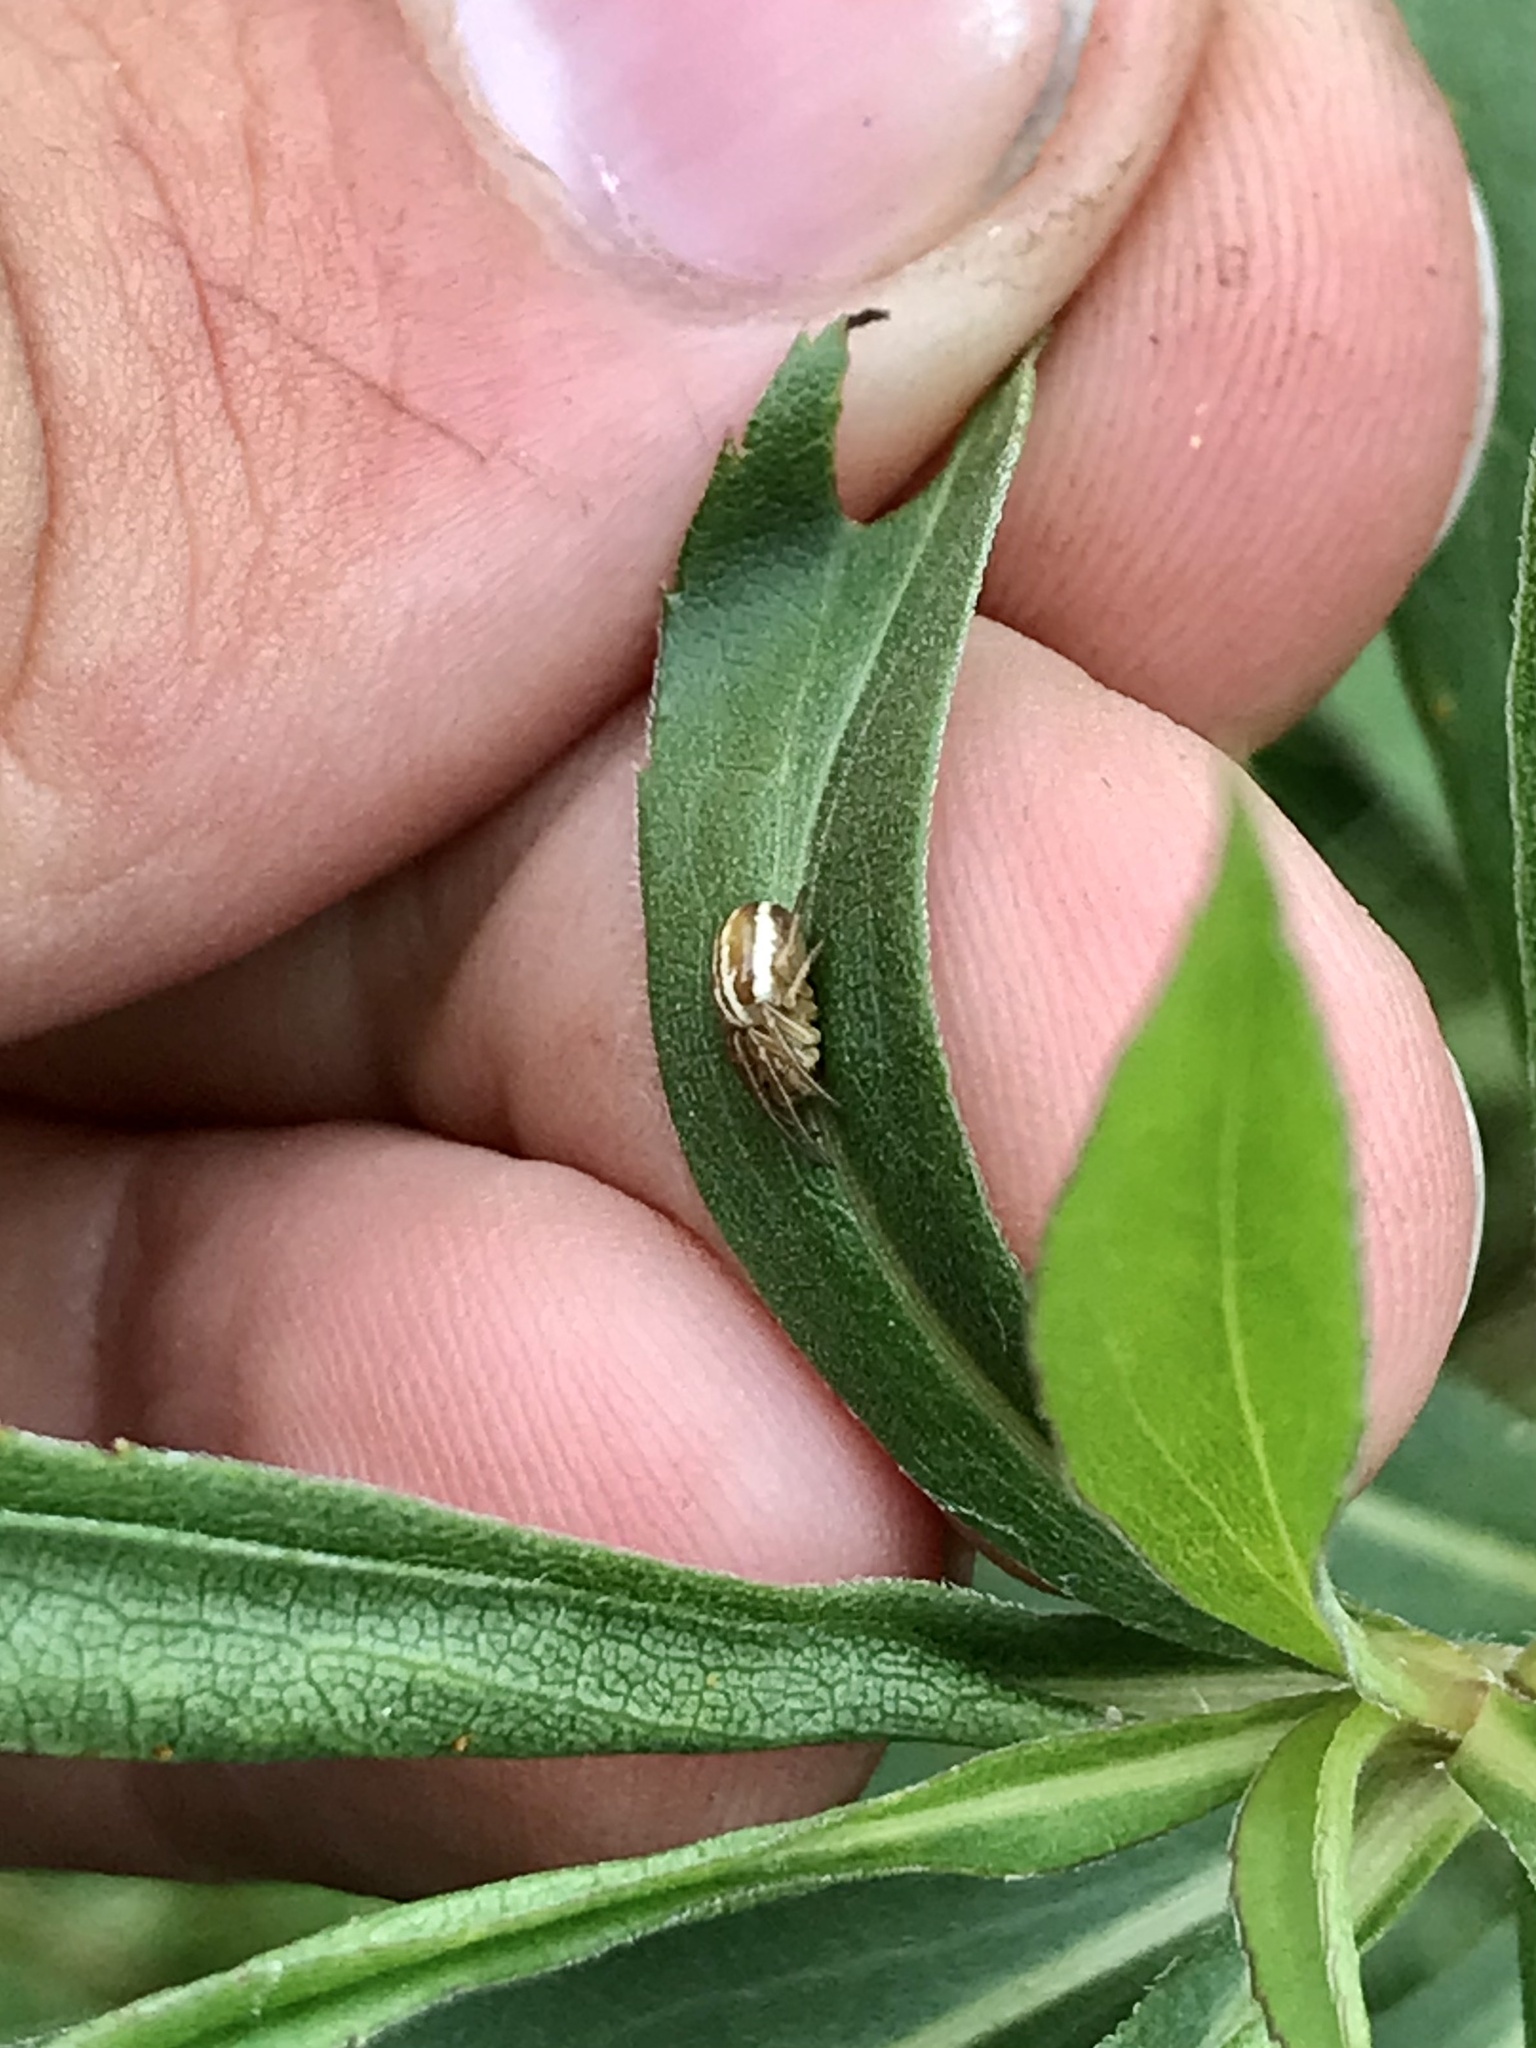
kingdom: Animalia
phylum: Arthropoda
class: Arachnida
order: Araneae
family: Araneidae
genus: Araneus
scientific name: Araneus pratensis
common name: Openfield orbweaver
